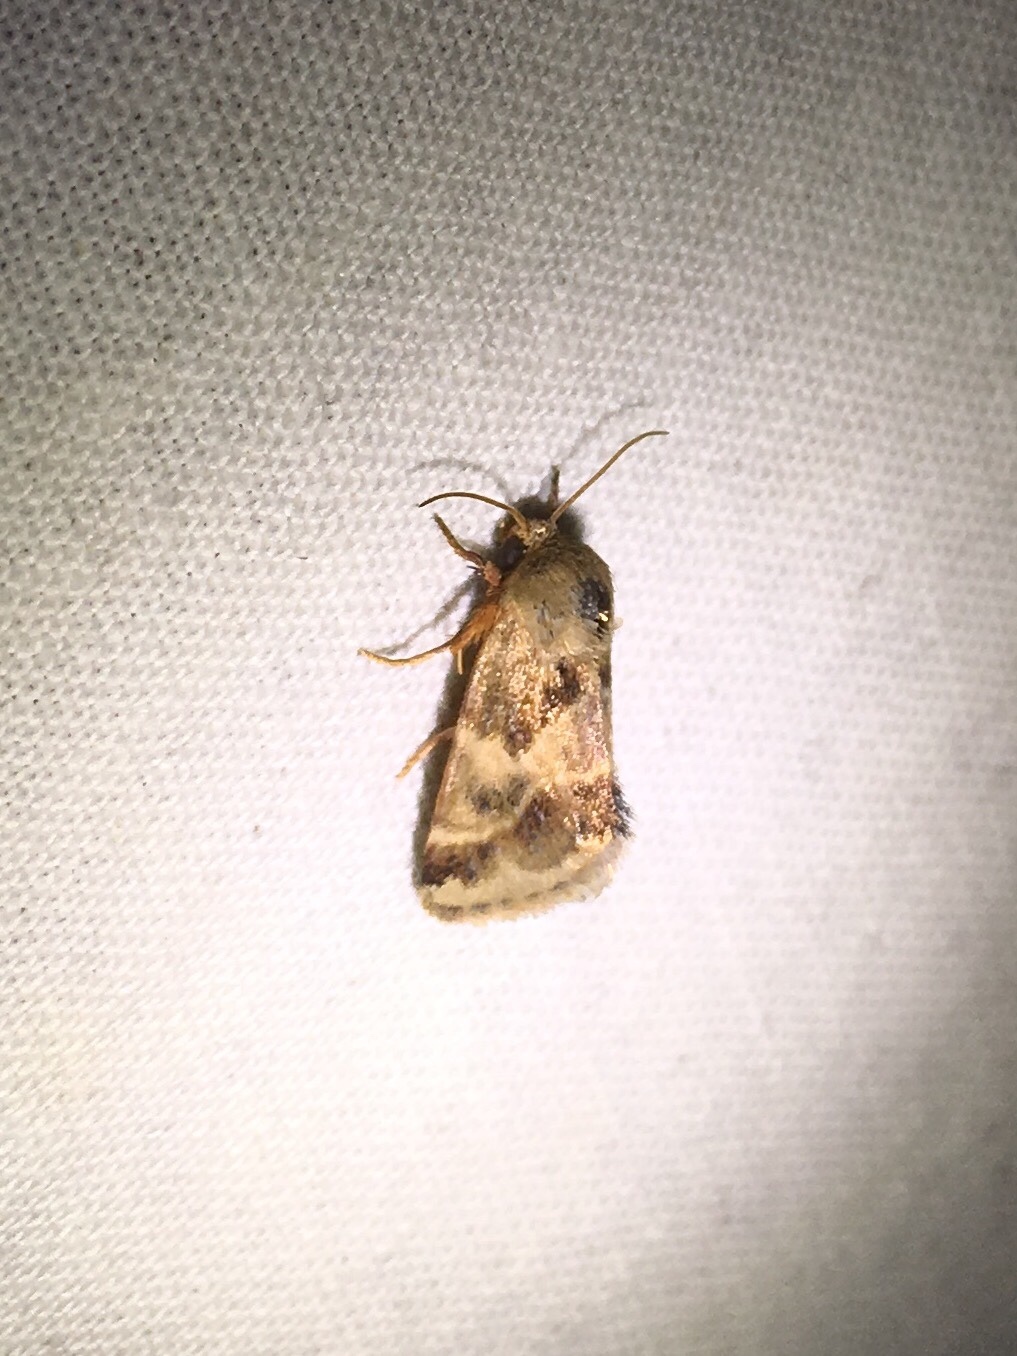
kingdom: Animalia
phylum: Arthropoda
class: Insecta
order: Lepidoptera
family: Noctuidae
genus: Schinia
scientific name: Schinia lynx
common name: Lynx flower moth
